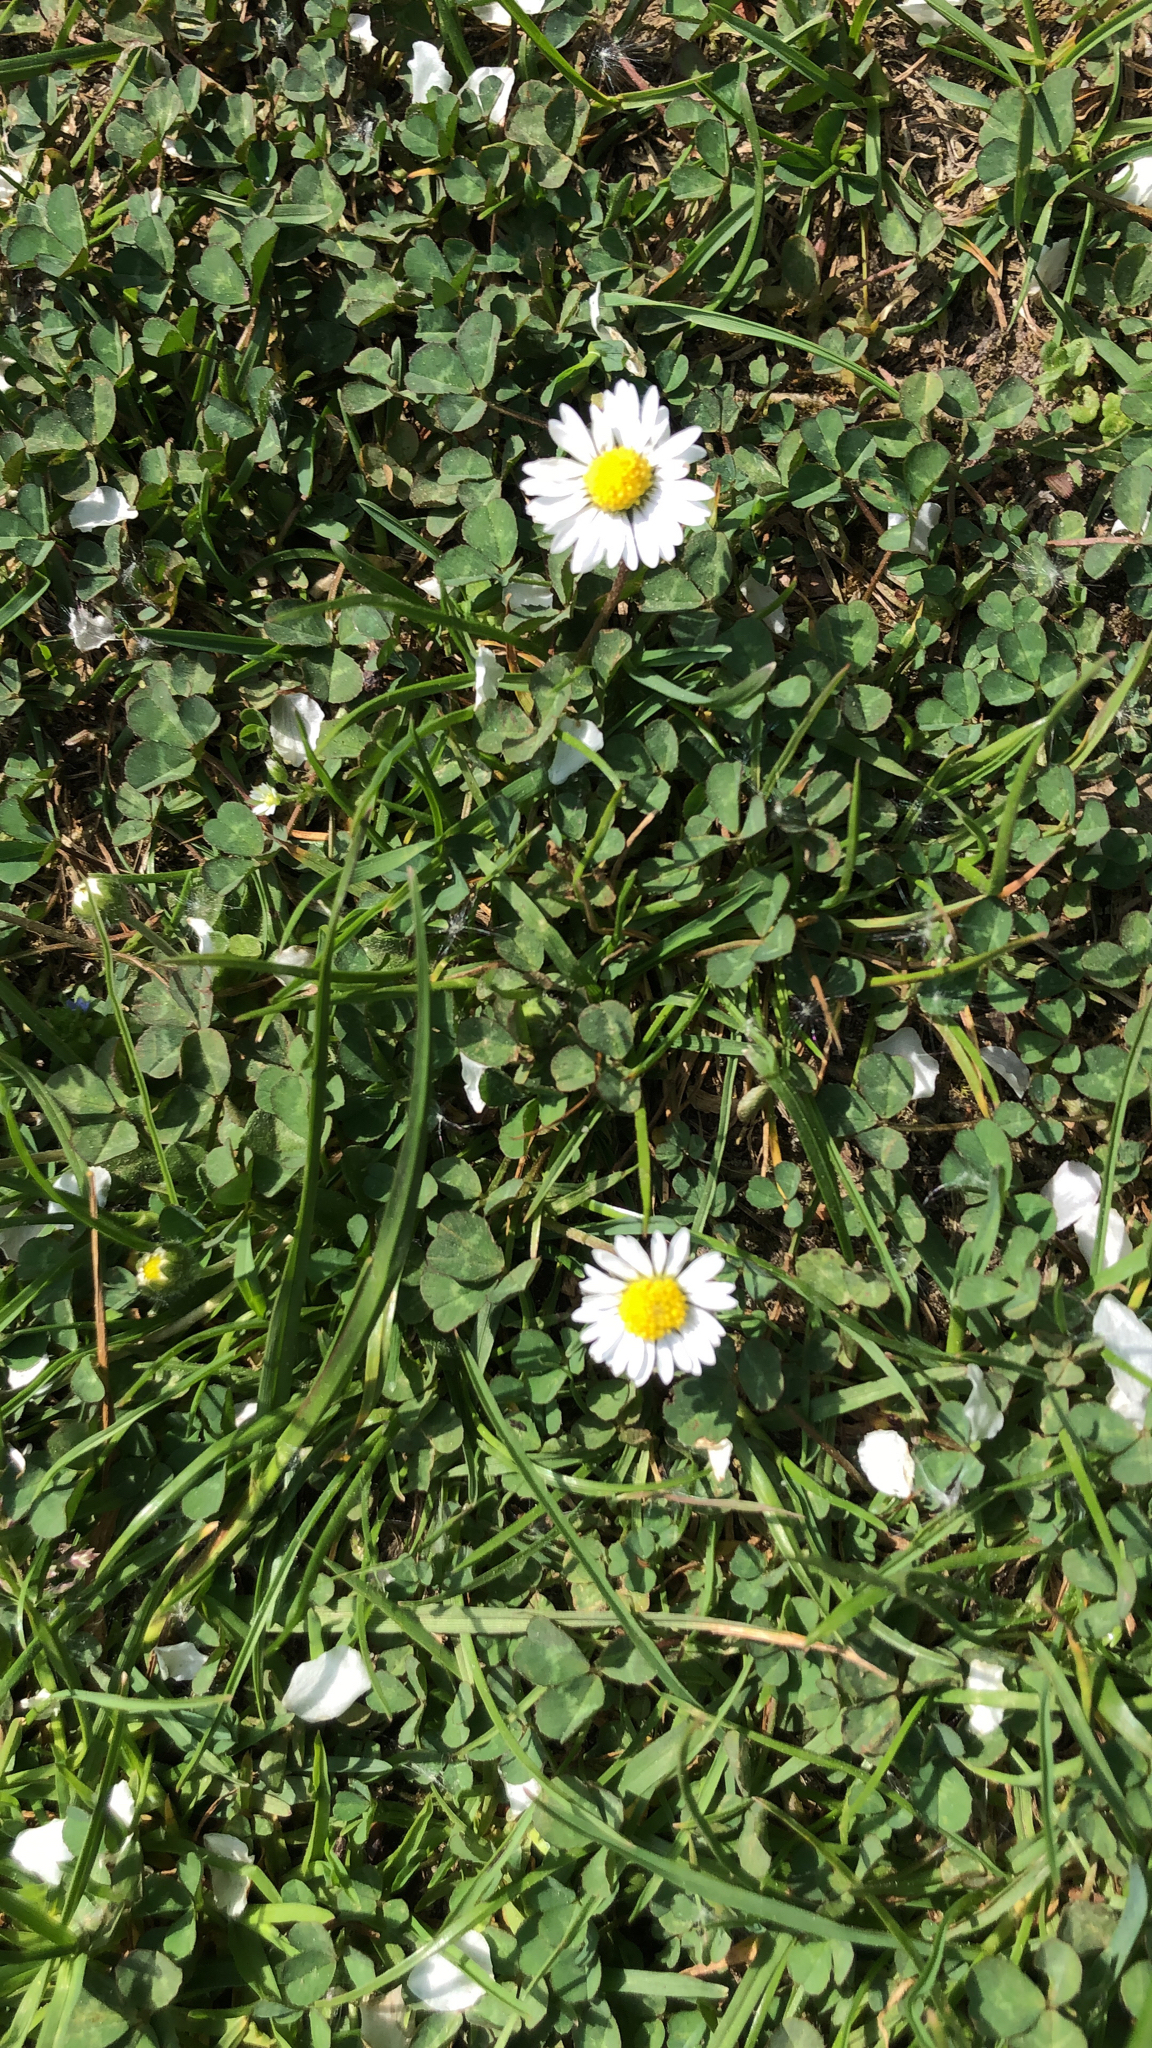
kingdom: Plantae
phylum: Tracheophyta
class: Magnoliopsida
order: Asterales
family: Asteraceae
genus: Bellis
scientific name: Bellis perennis
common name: Lawndaisy
